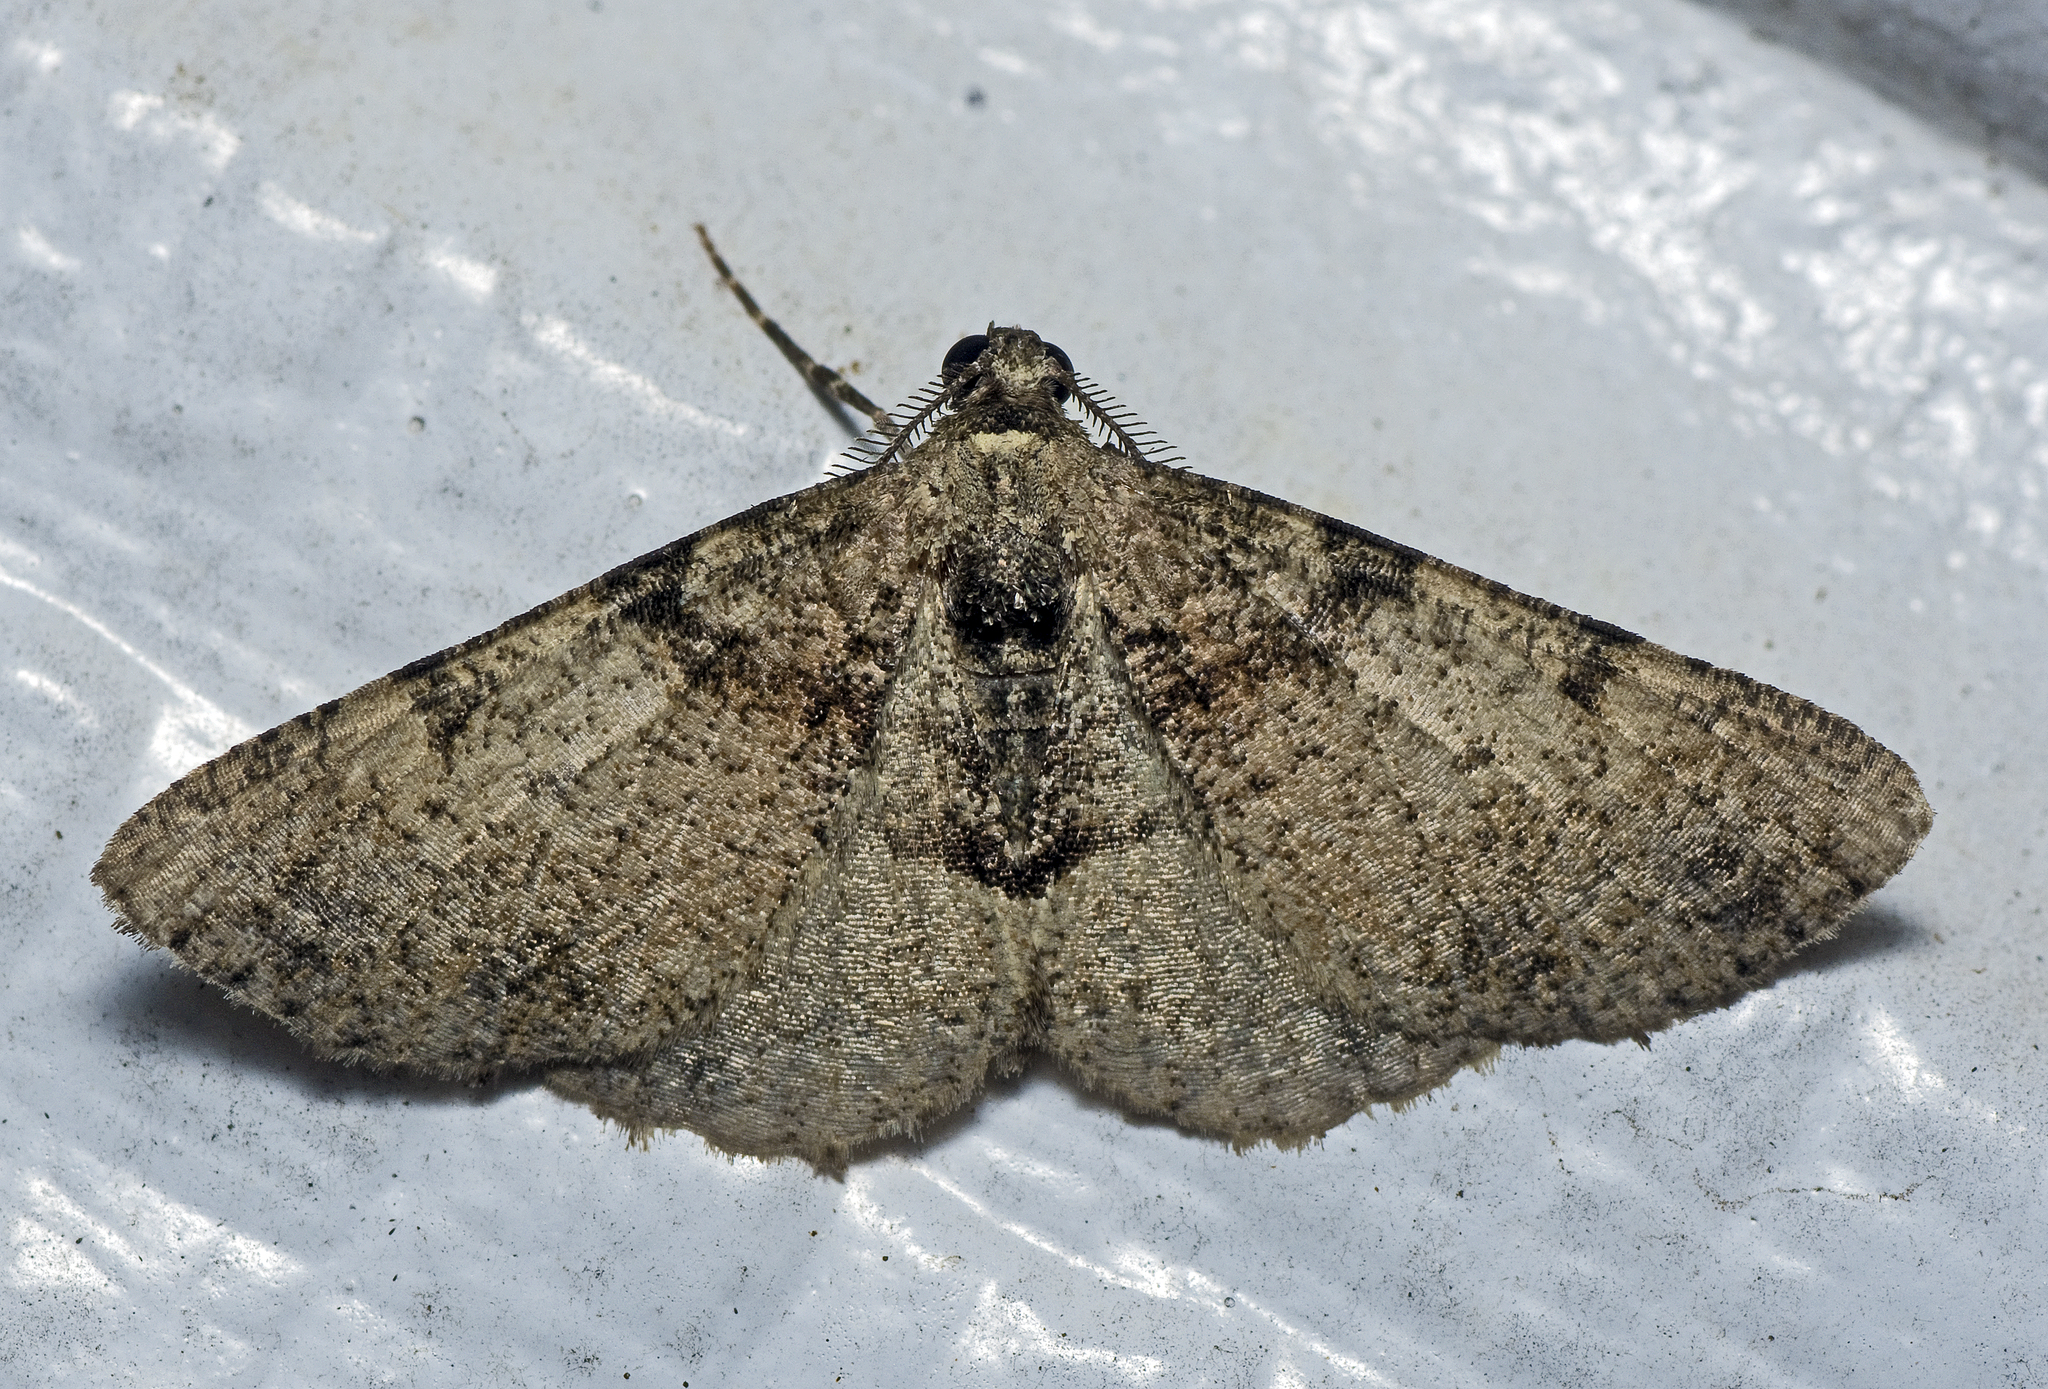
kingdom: Animalia
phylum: Arthropoda
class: Insecta
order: Lepidoptera
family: Geometridae
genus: Syneora
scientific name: Syneora adelphodes
